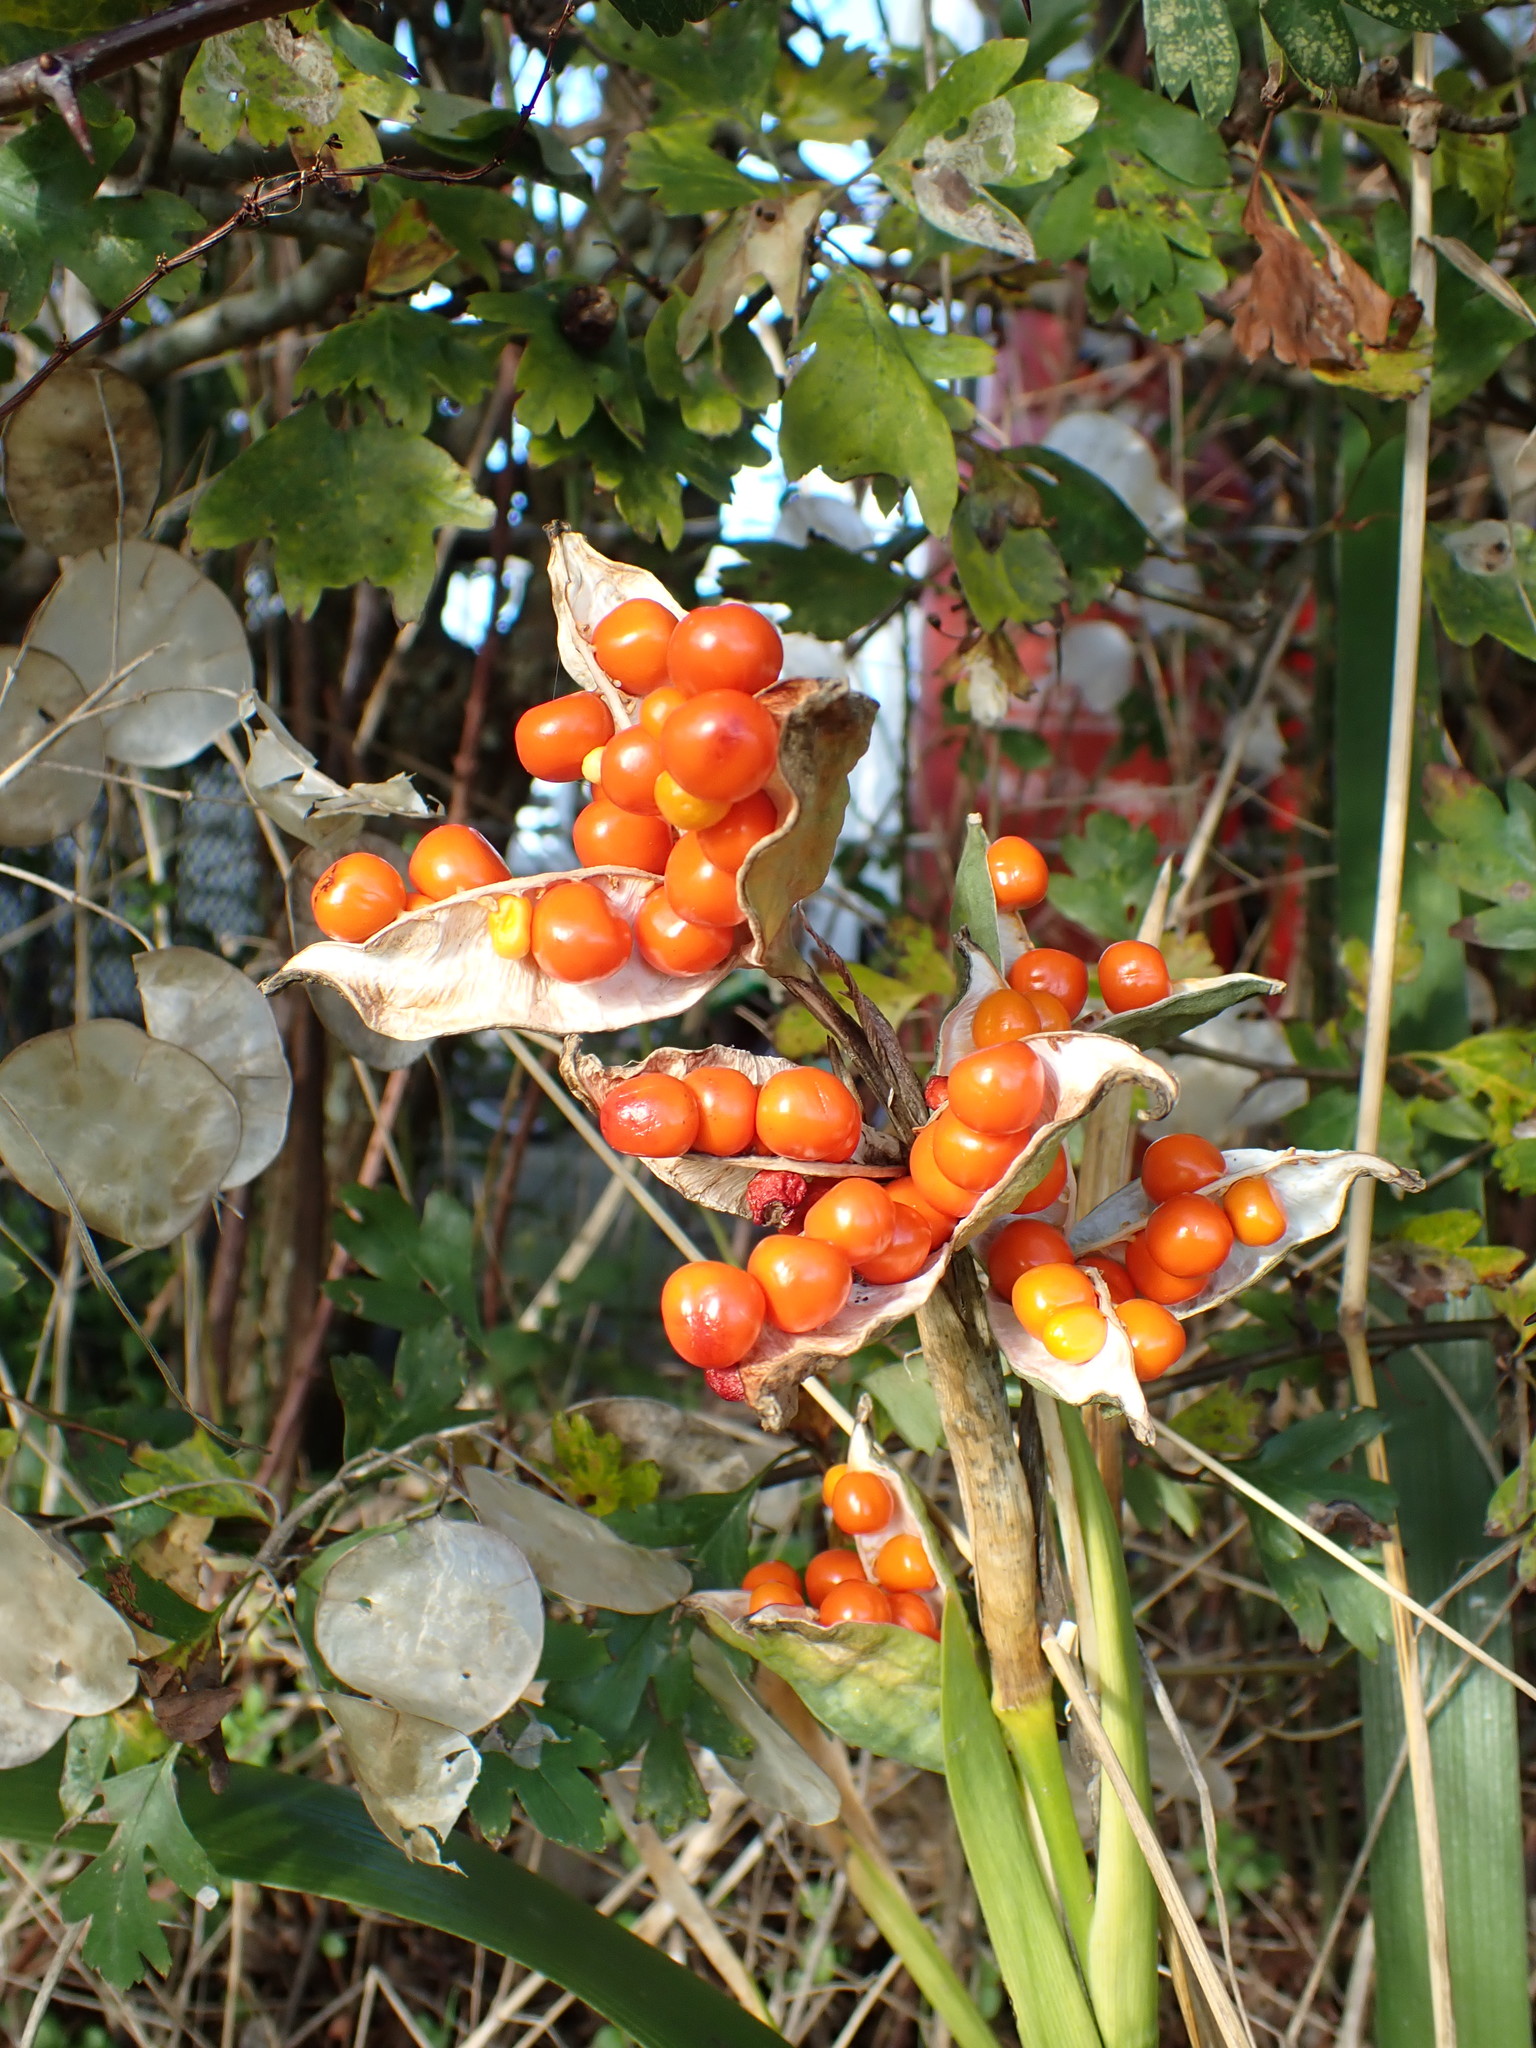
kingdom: Plantae
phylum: Tracheophyta
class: Liliopsida
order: Asparagales
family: Iridaceae
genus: Iris
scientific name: Iris foetidissima
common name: Stinking iris
